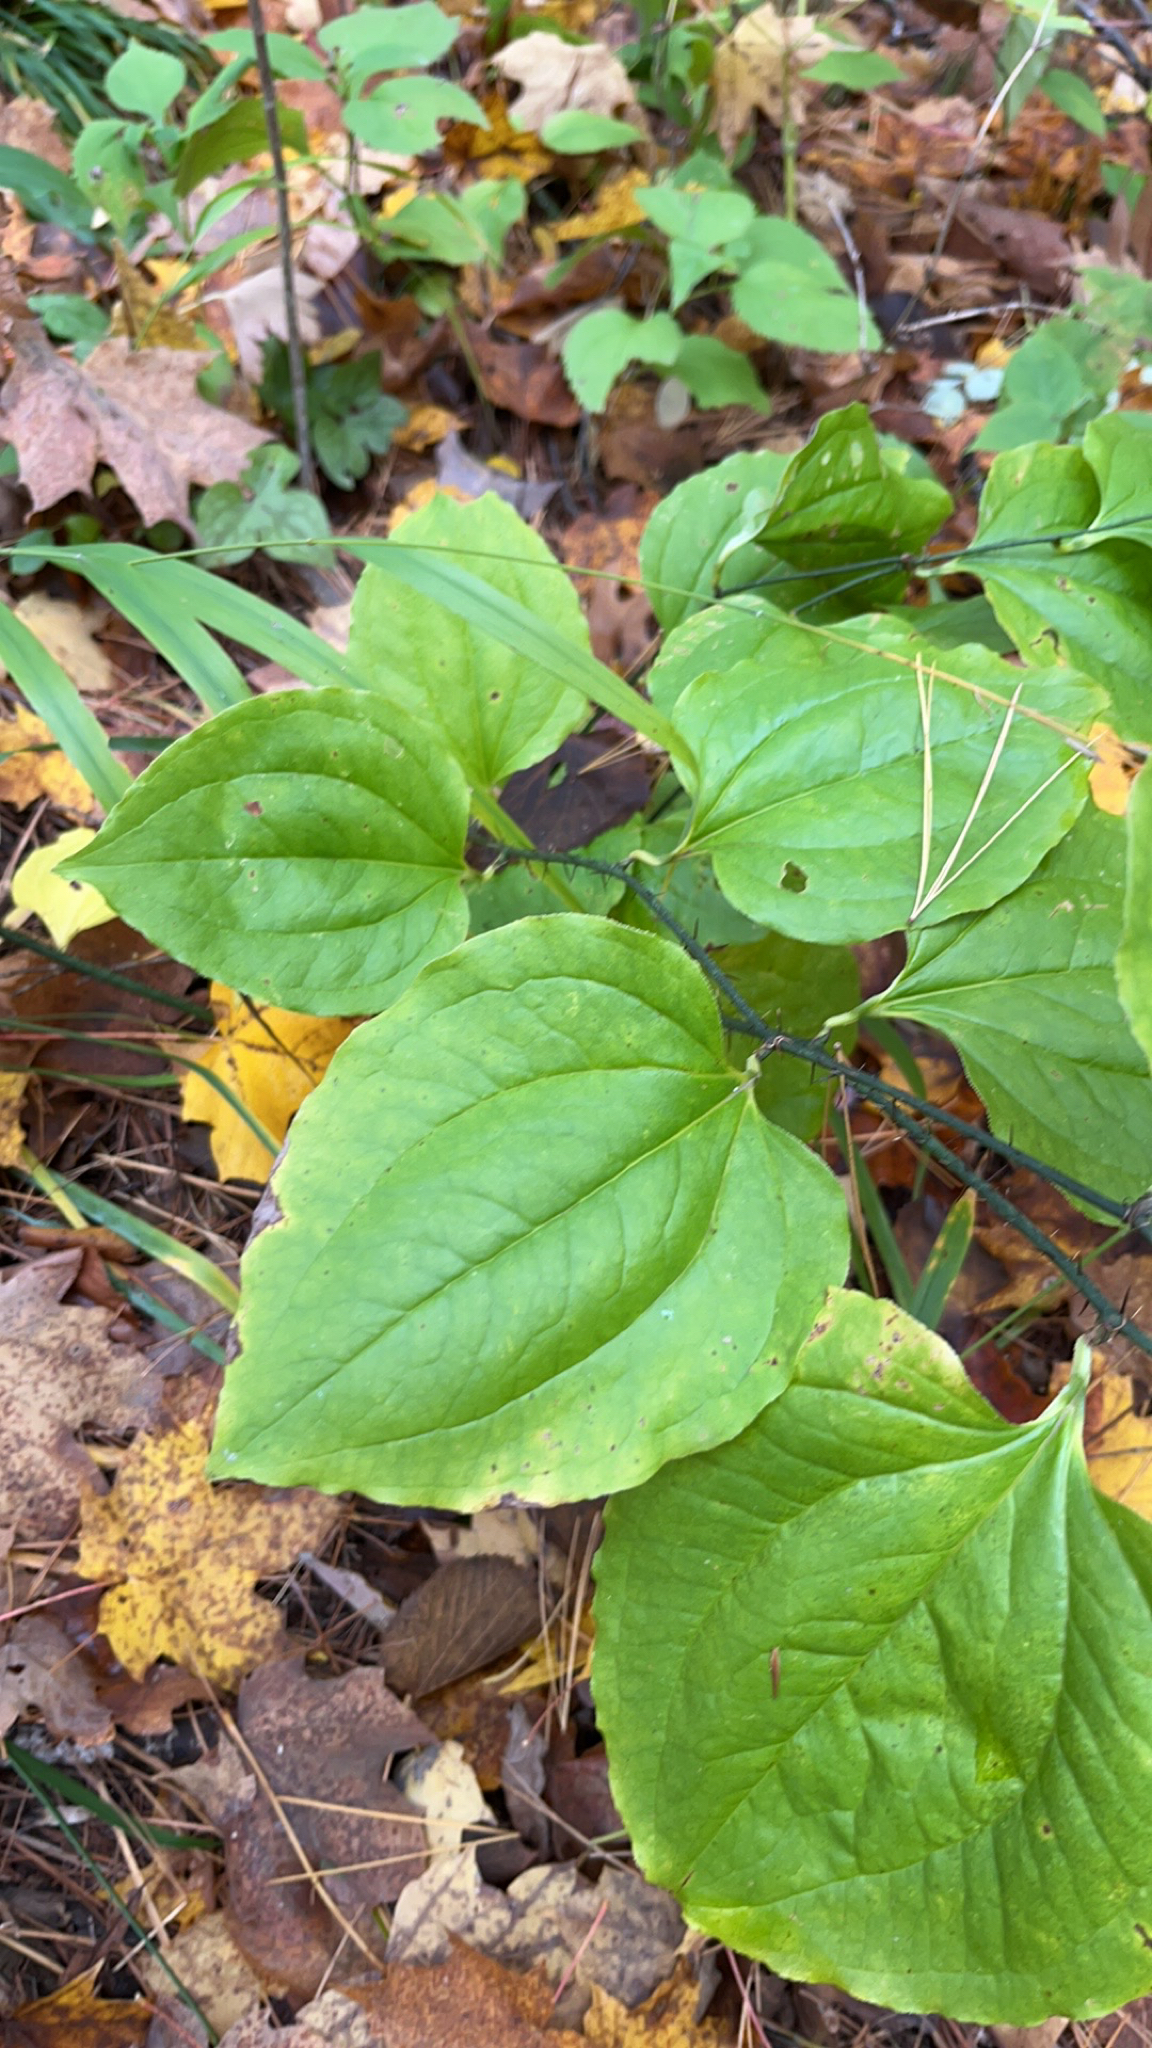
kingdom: Plantae
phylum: Tracheophyta
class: Liliopsida
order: Liliales
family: Smilacaceae
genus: Smilax
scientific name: Smilax tamnoides
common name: Hellfetter
